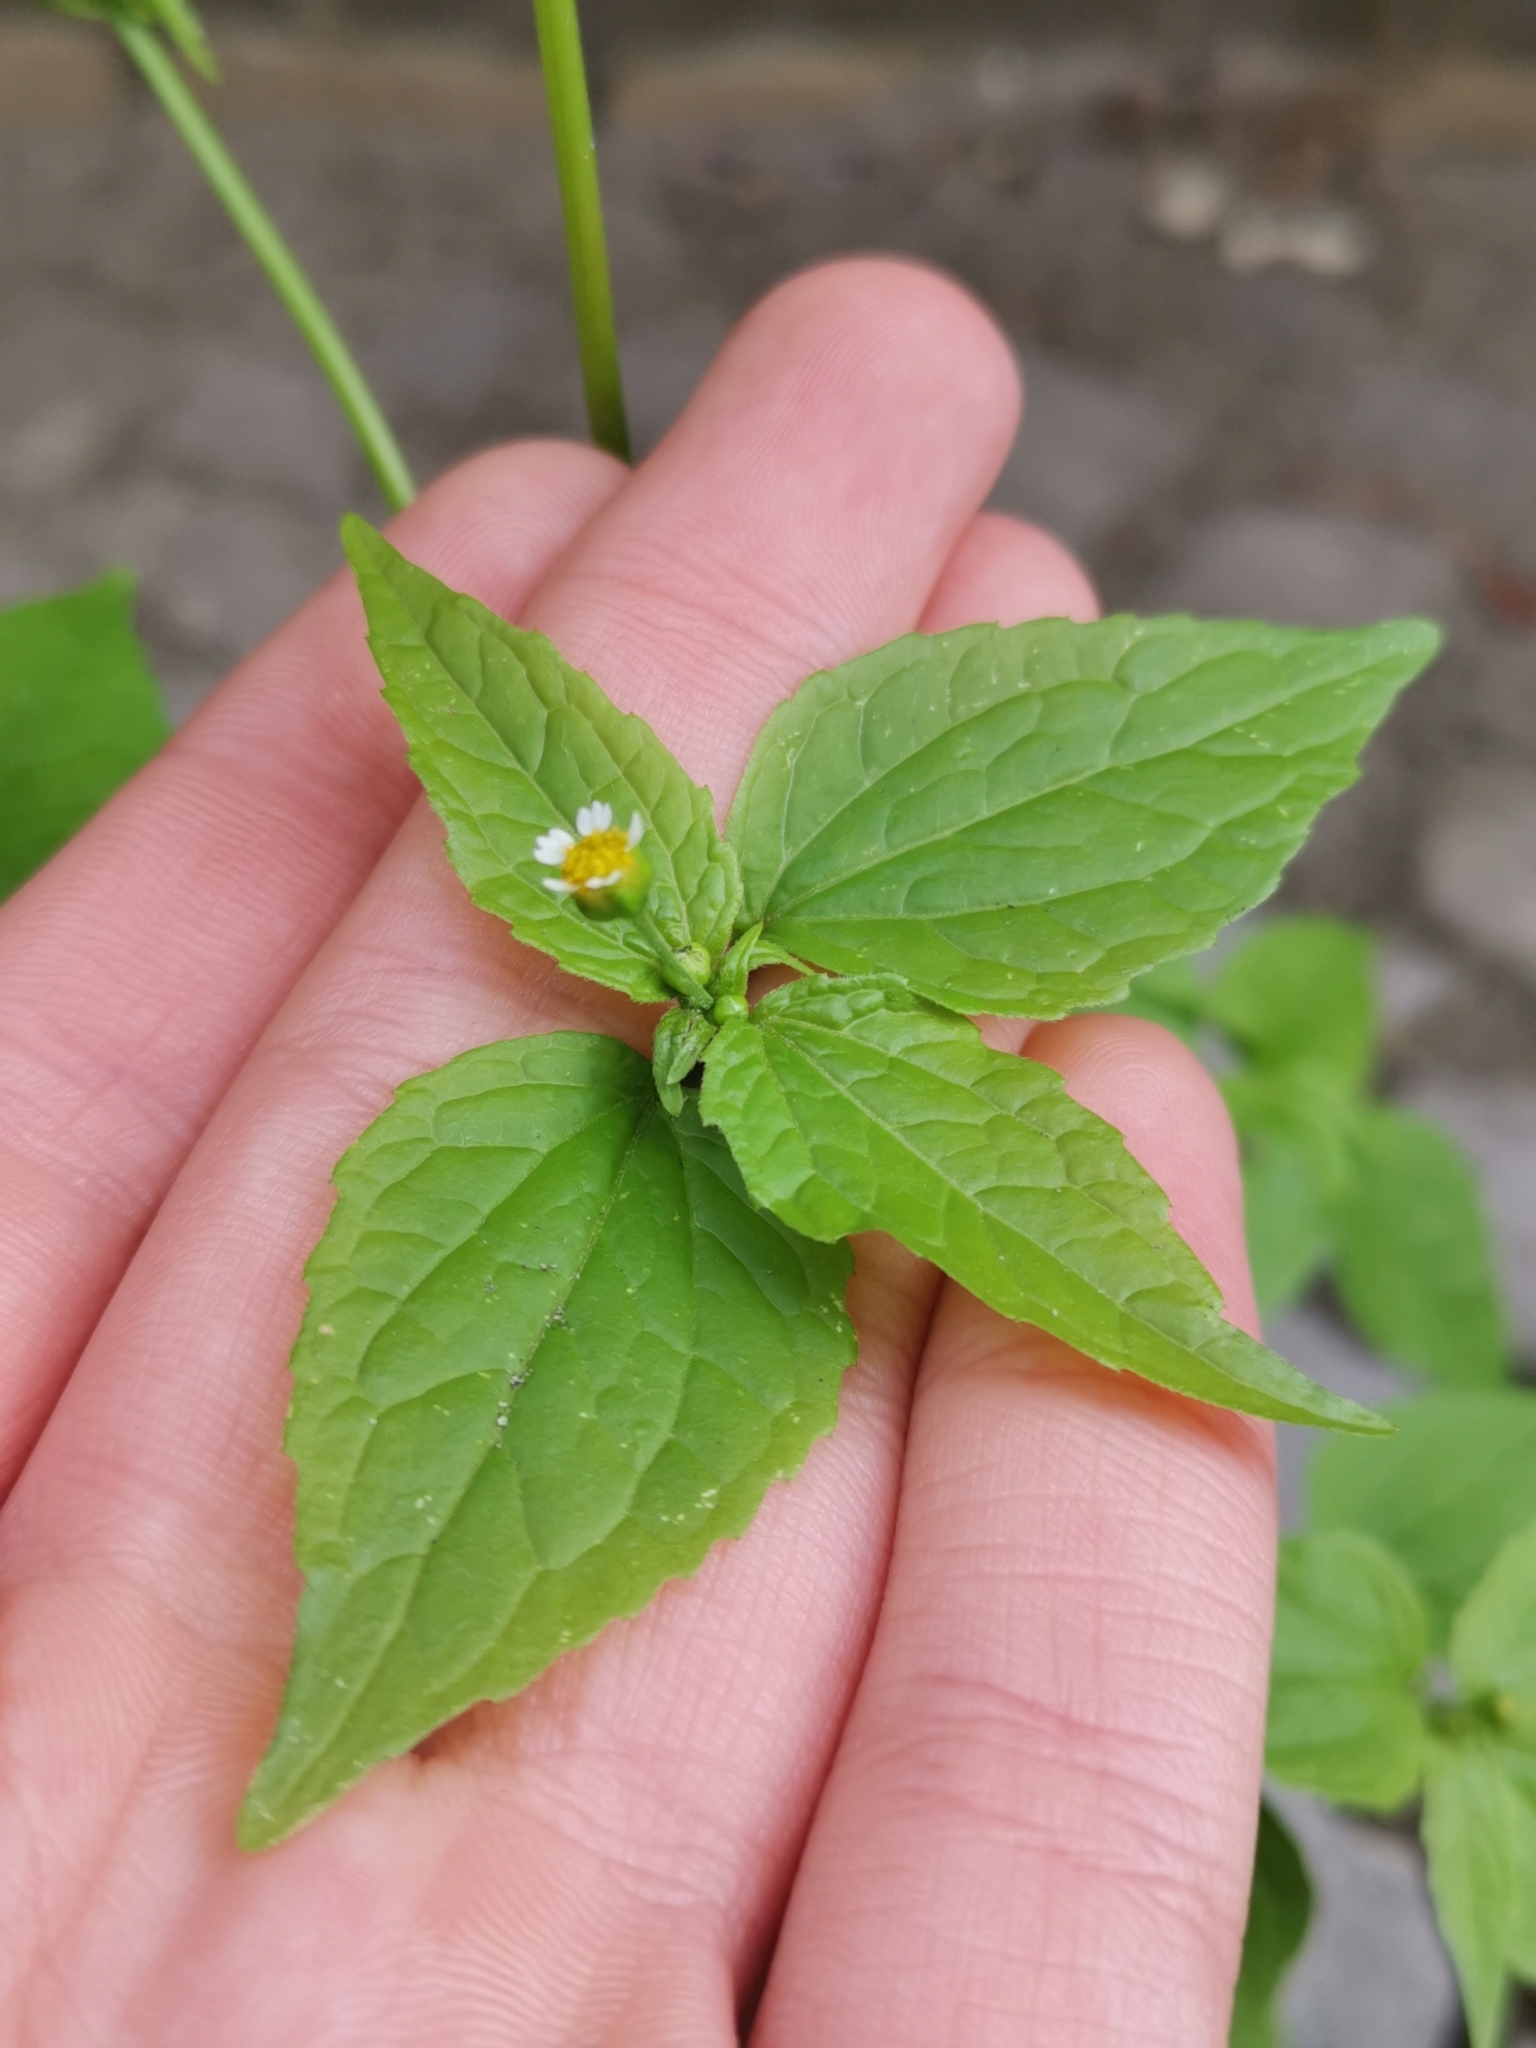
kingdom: Plantae
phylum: Tracheophyta
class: Magnoliopsida
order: Asterales
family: Asteraceae
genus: Galinsoga
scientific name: Galinsoga parviflora
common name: Gallant soldier
